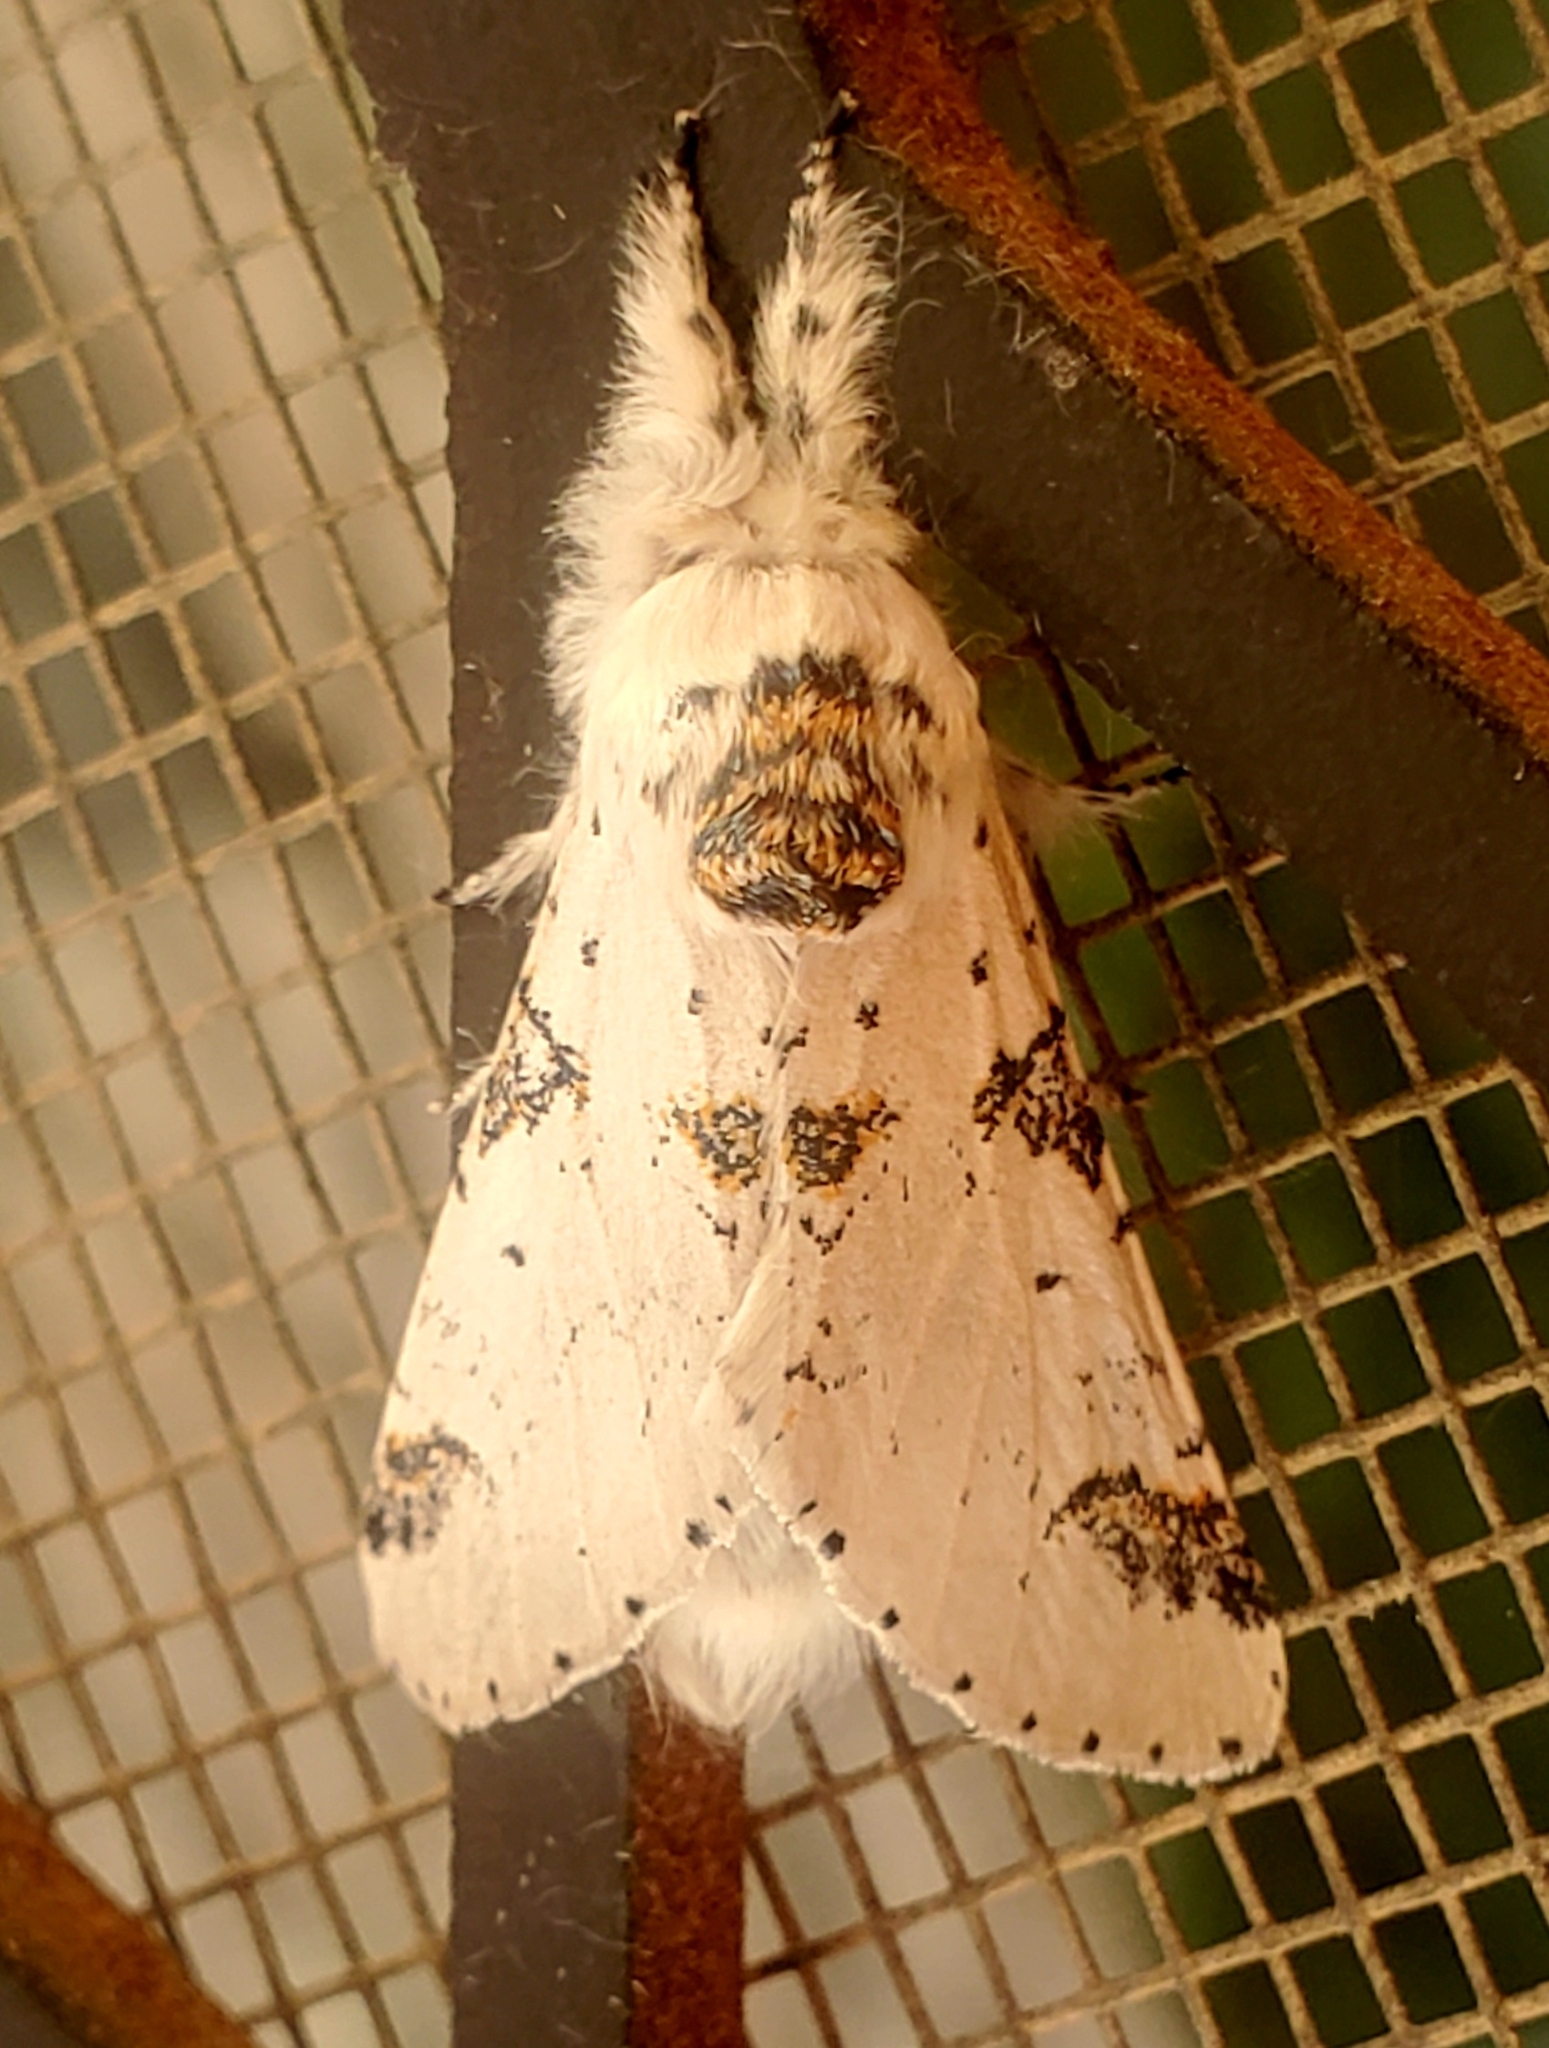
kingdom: Animalia
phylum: Arthropoda
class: Insecta
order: Lepidoptera
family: Notodontidae
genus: Furcula
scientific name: Furcula scolopendrina
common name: Zigzag furcula moth
